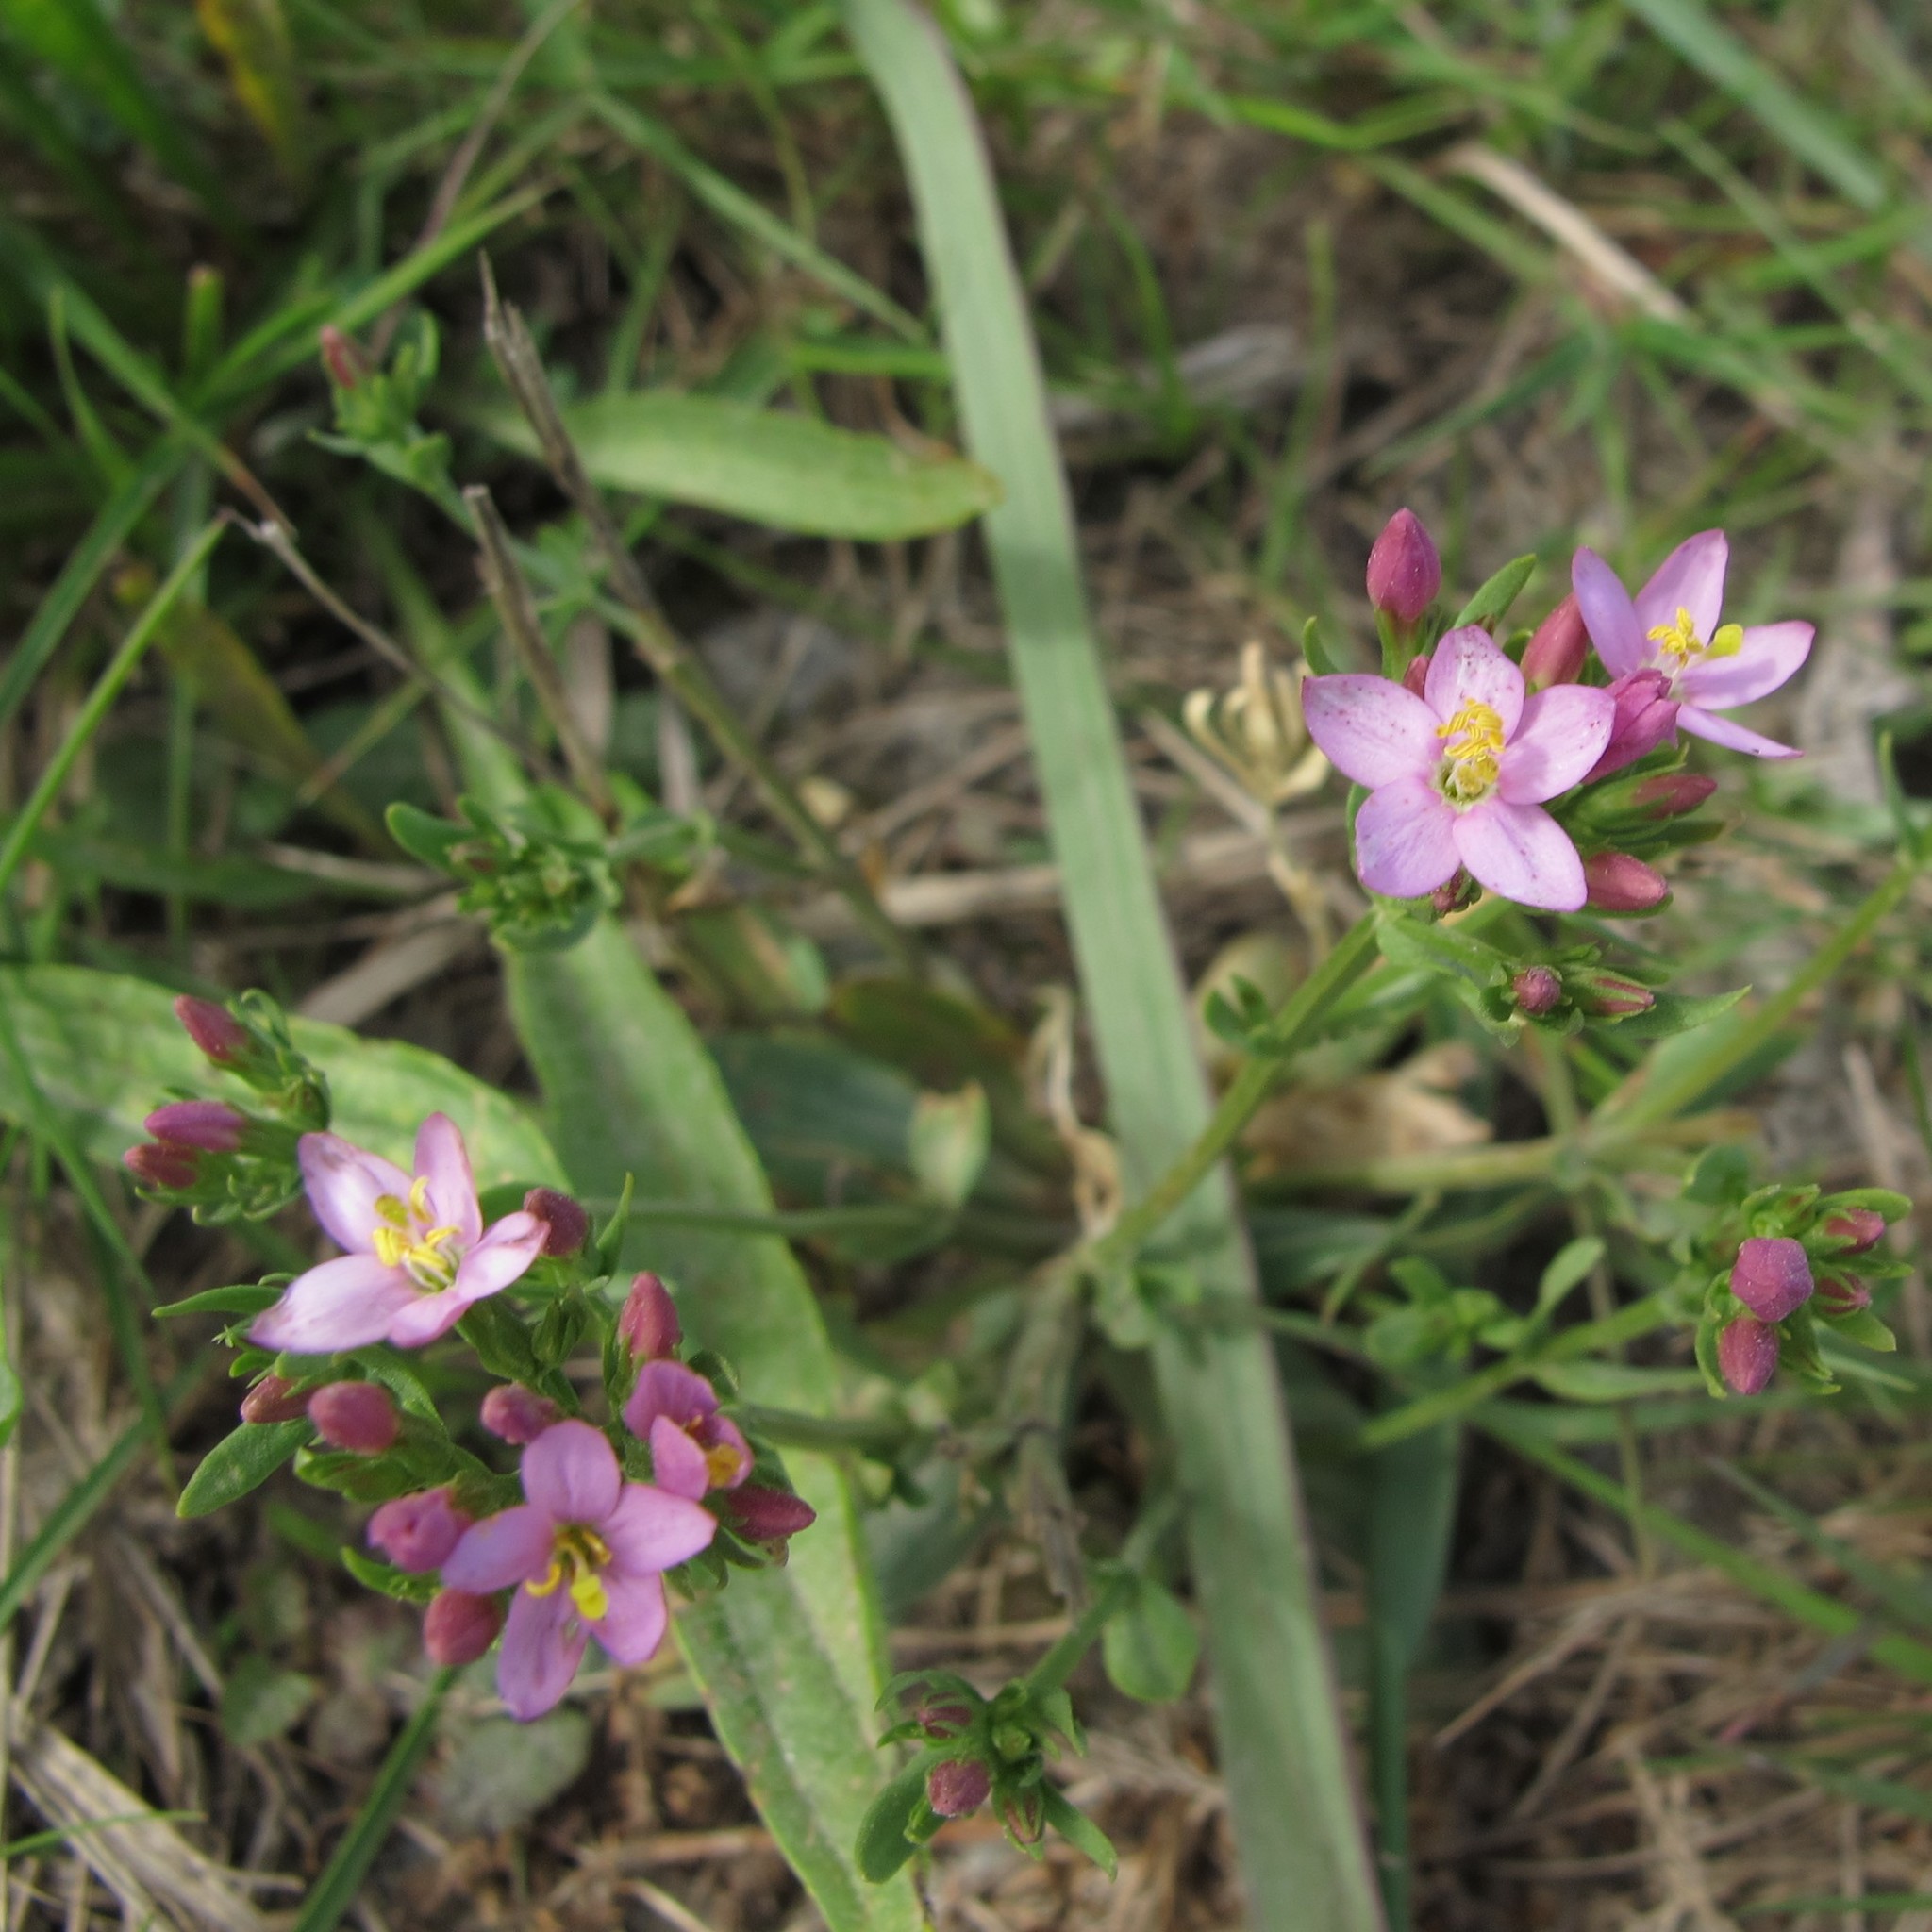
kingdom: Plantae
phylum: Tracheophyta
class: Magnoliopsida
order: Gentianales
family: Gentianaceae
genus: Centaurium
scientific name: Centaurium erythraea
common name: Common centaury
